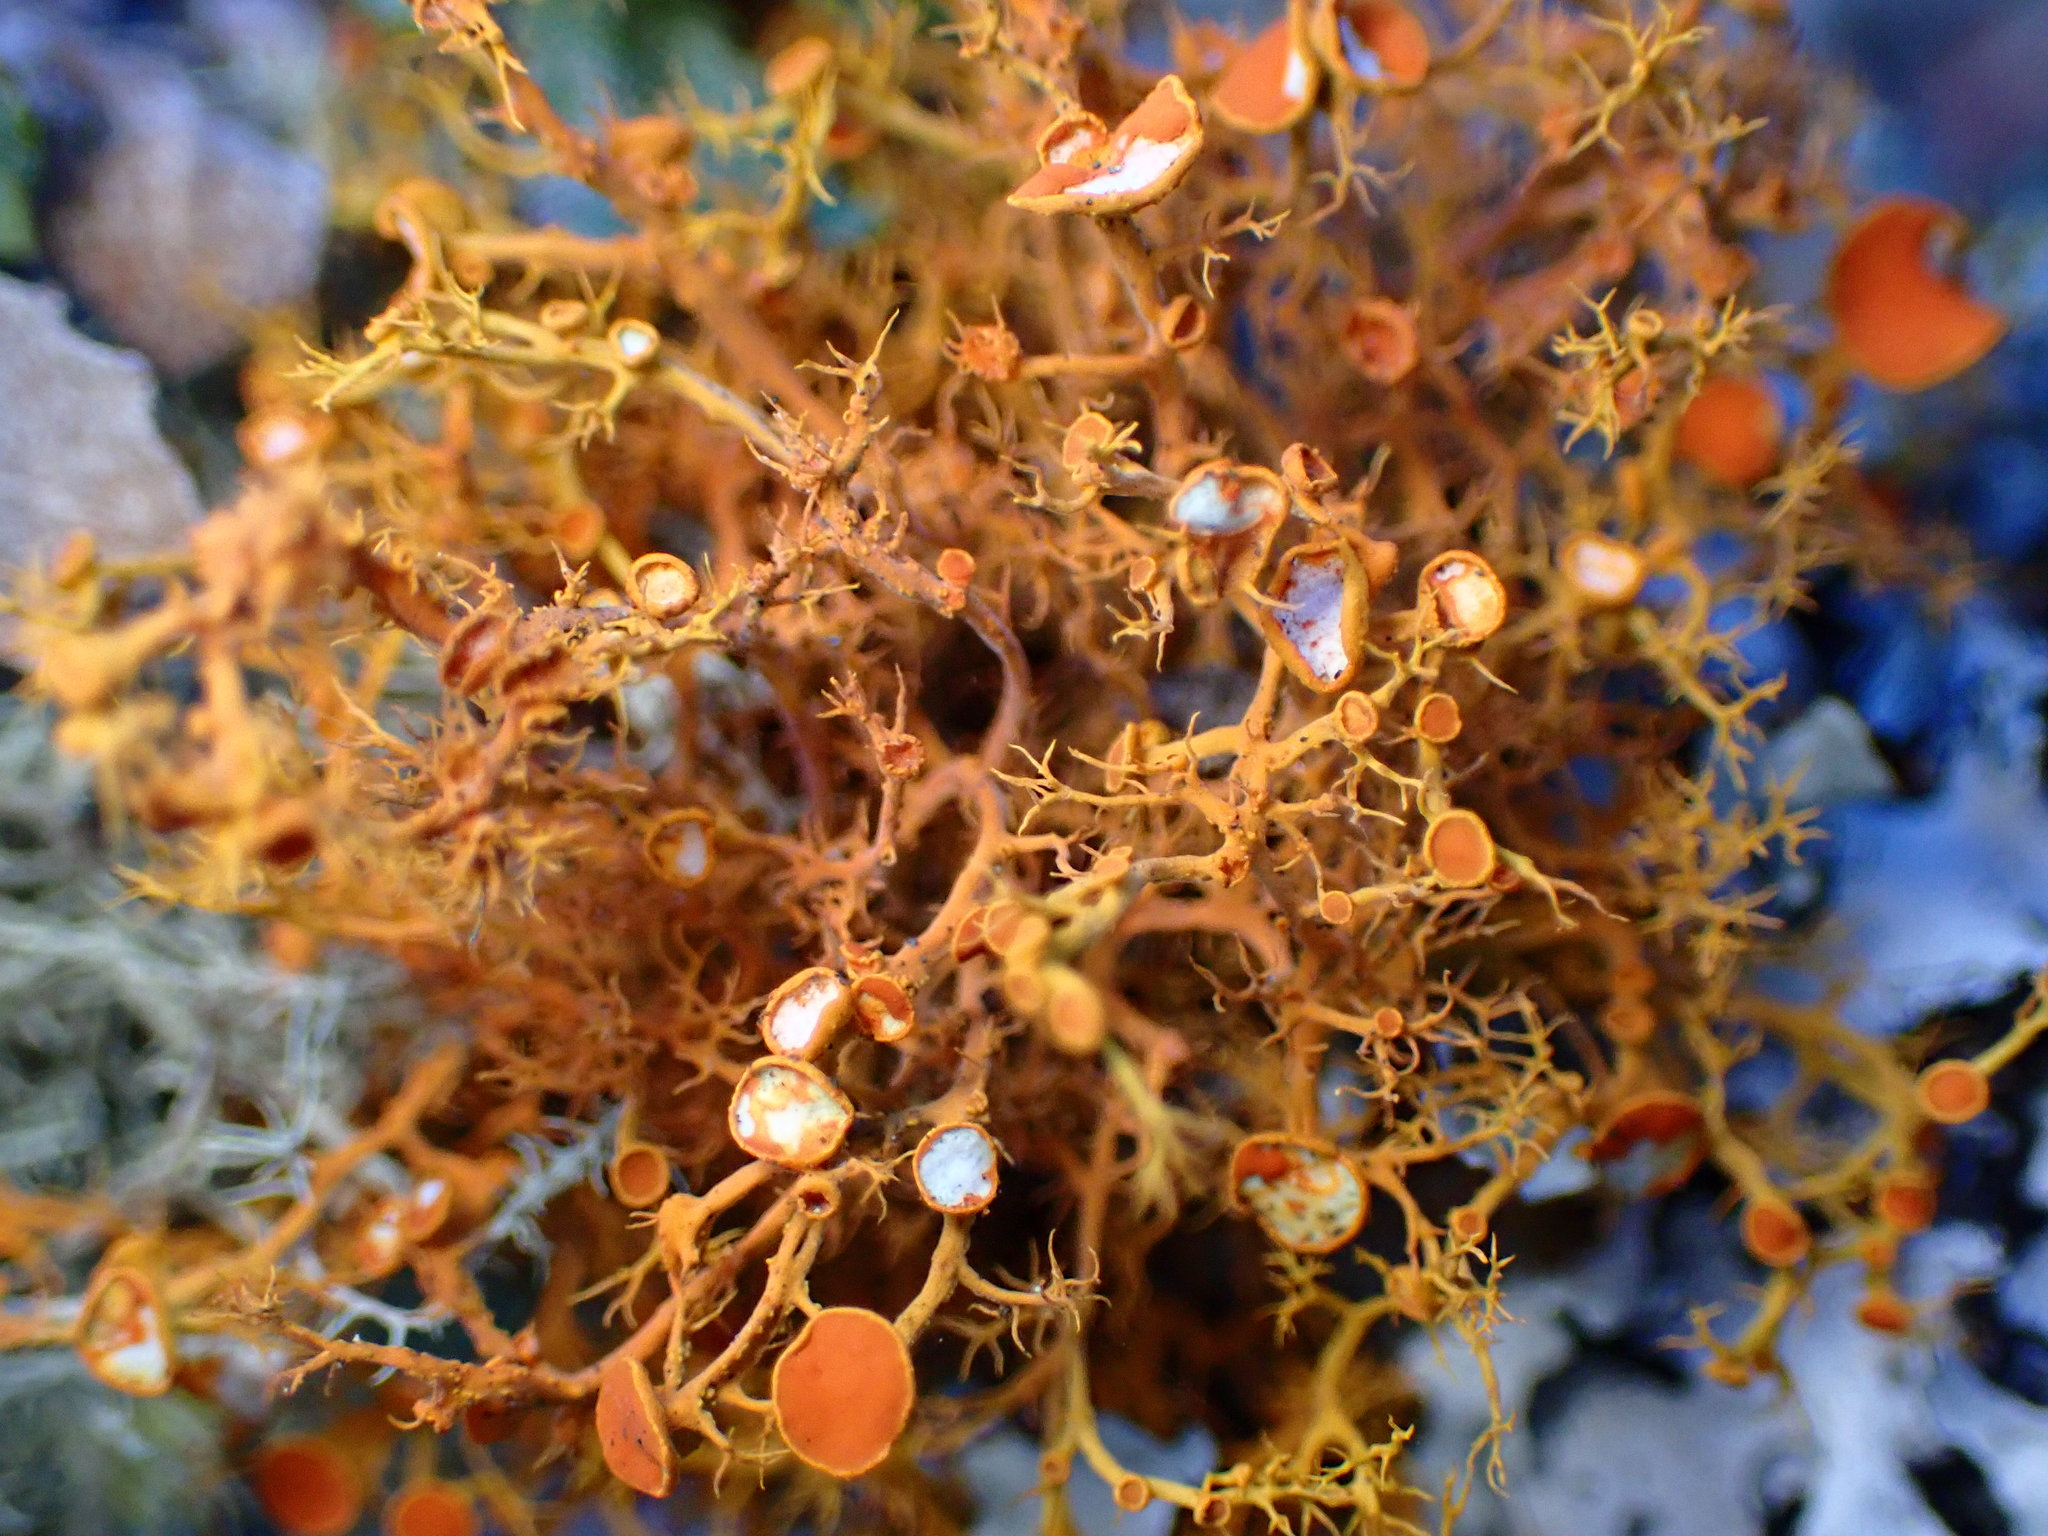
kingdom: Fungi
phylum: Ascomycota
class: Lecanoromycetes
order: Teloschistales
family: Teloschistaceae
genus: Teloschistes
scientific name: Teloschistes flavicans
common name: Golden hair-lichen
